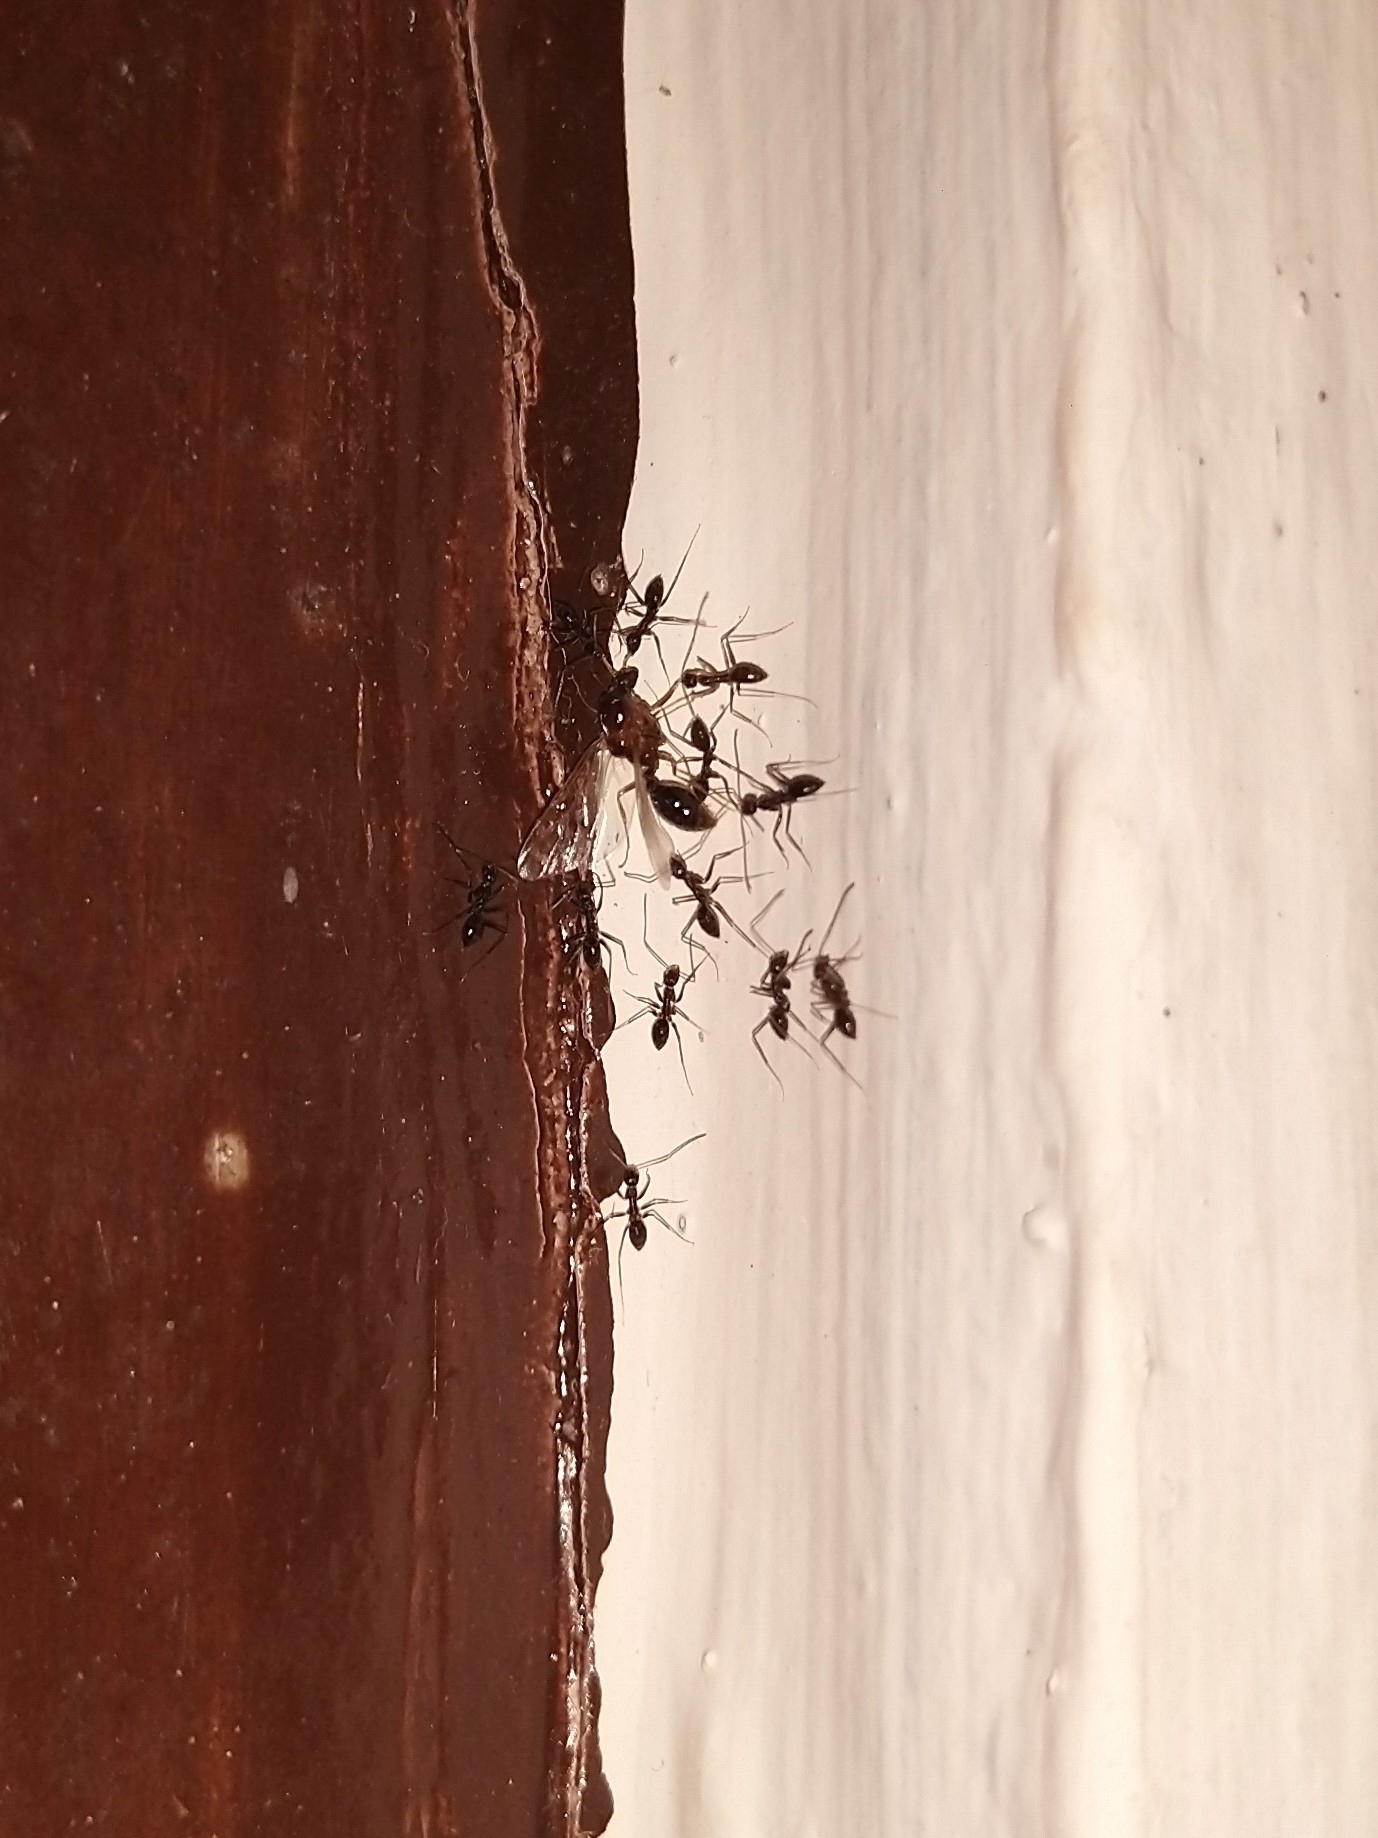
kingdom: Animalia
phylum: Arthropoda
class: Insecta
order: Hymenoptera
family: Formicidae
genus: Paratrechina
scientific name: Paratrechina longicornis
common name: Longhorned crazy ant
